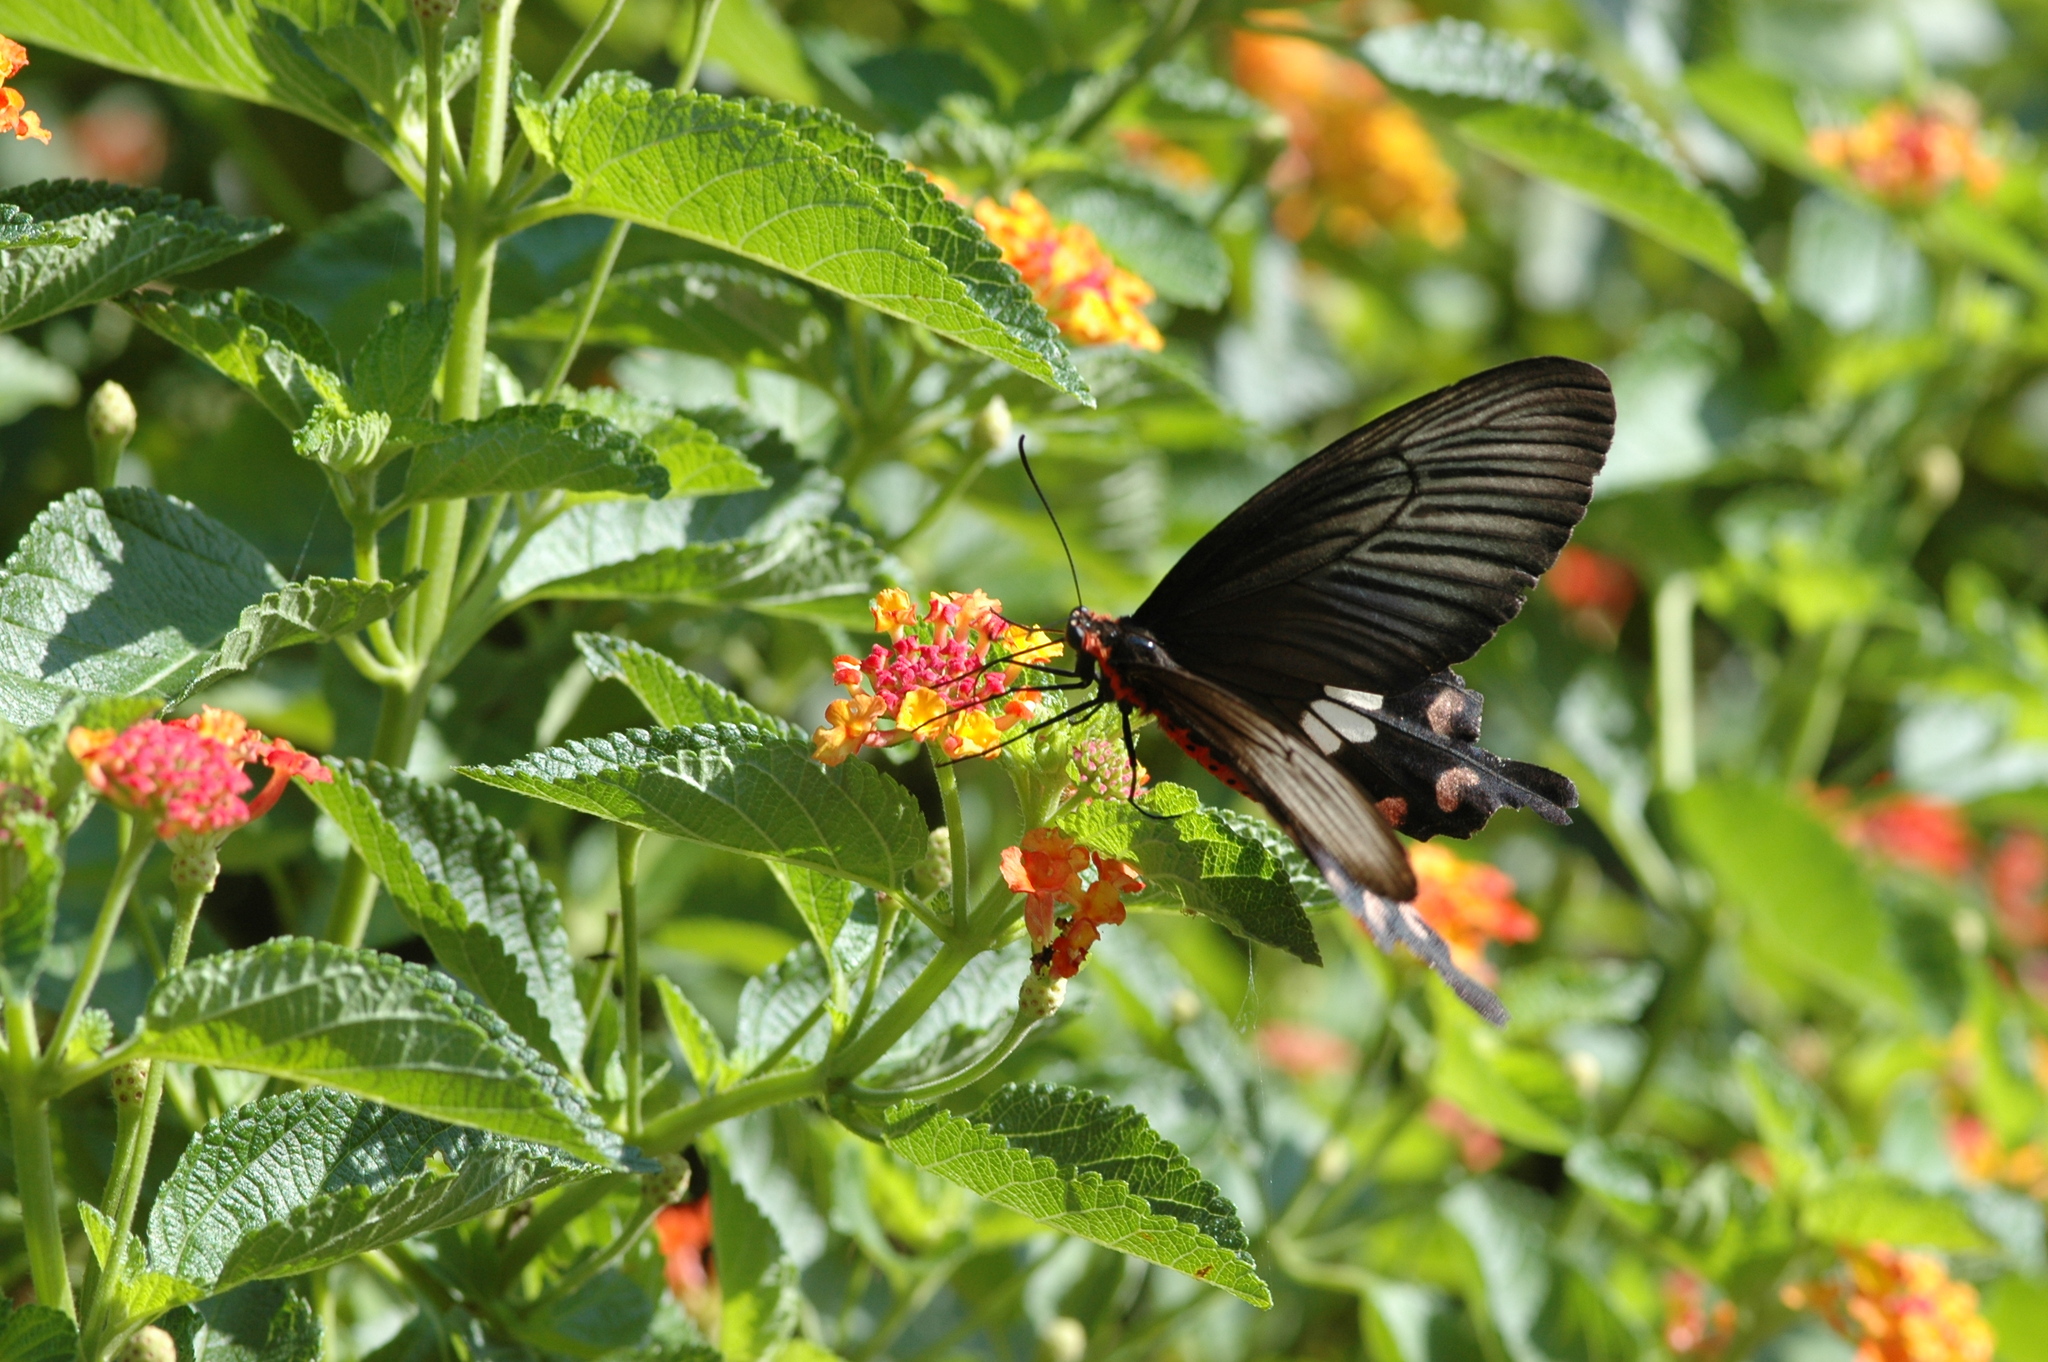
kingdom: Animalia
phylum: Arthropoda
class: Insecta
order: Lepidoptera
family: Papilionidae
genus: Pachliopta
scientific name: Pachliopta aristolochiae
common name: Common rose
